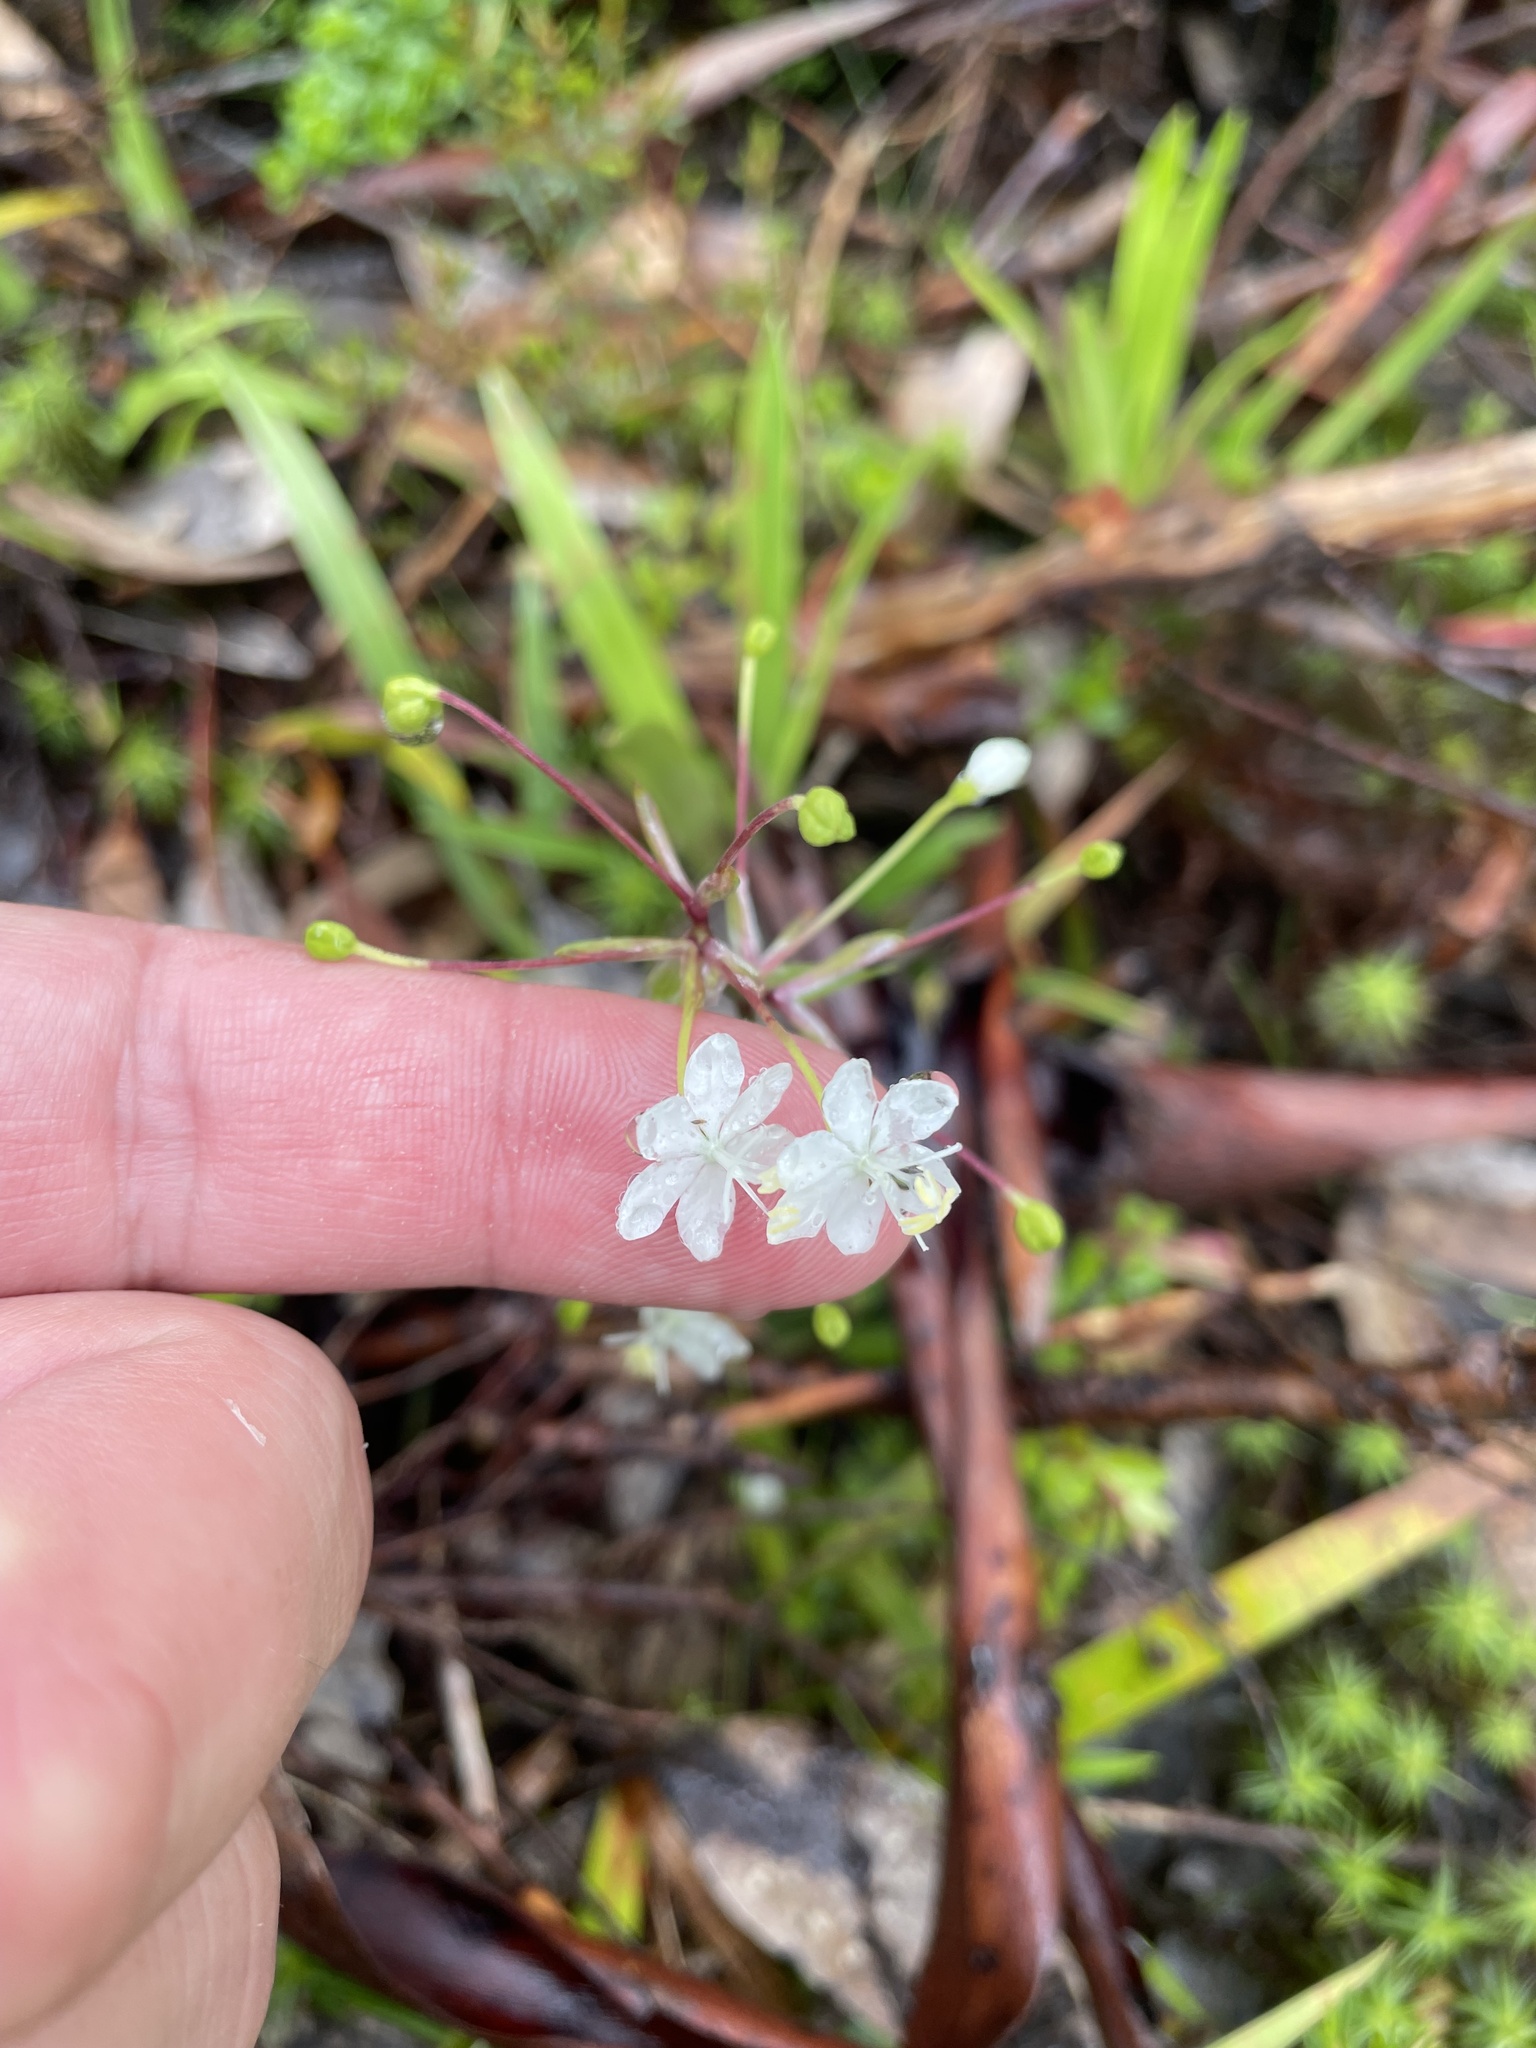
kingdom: Plantae
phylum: Tracheophyta
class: Liliopsida
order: Asparagales
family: Iridaceae
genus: Libertia
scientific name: Libertia pulchella
